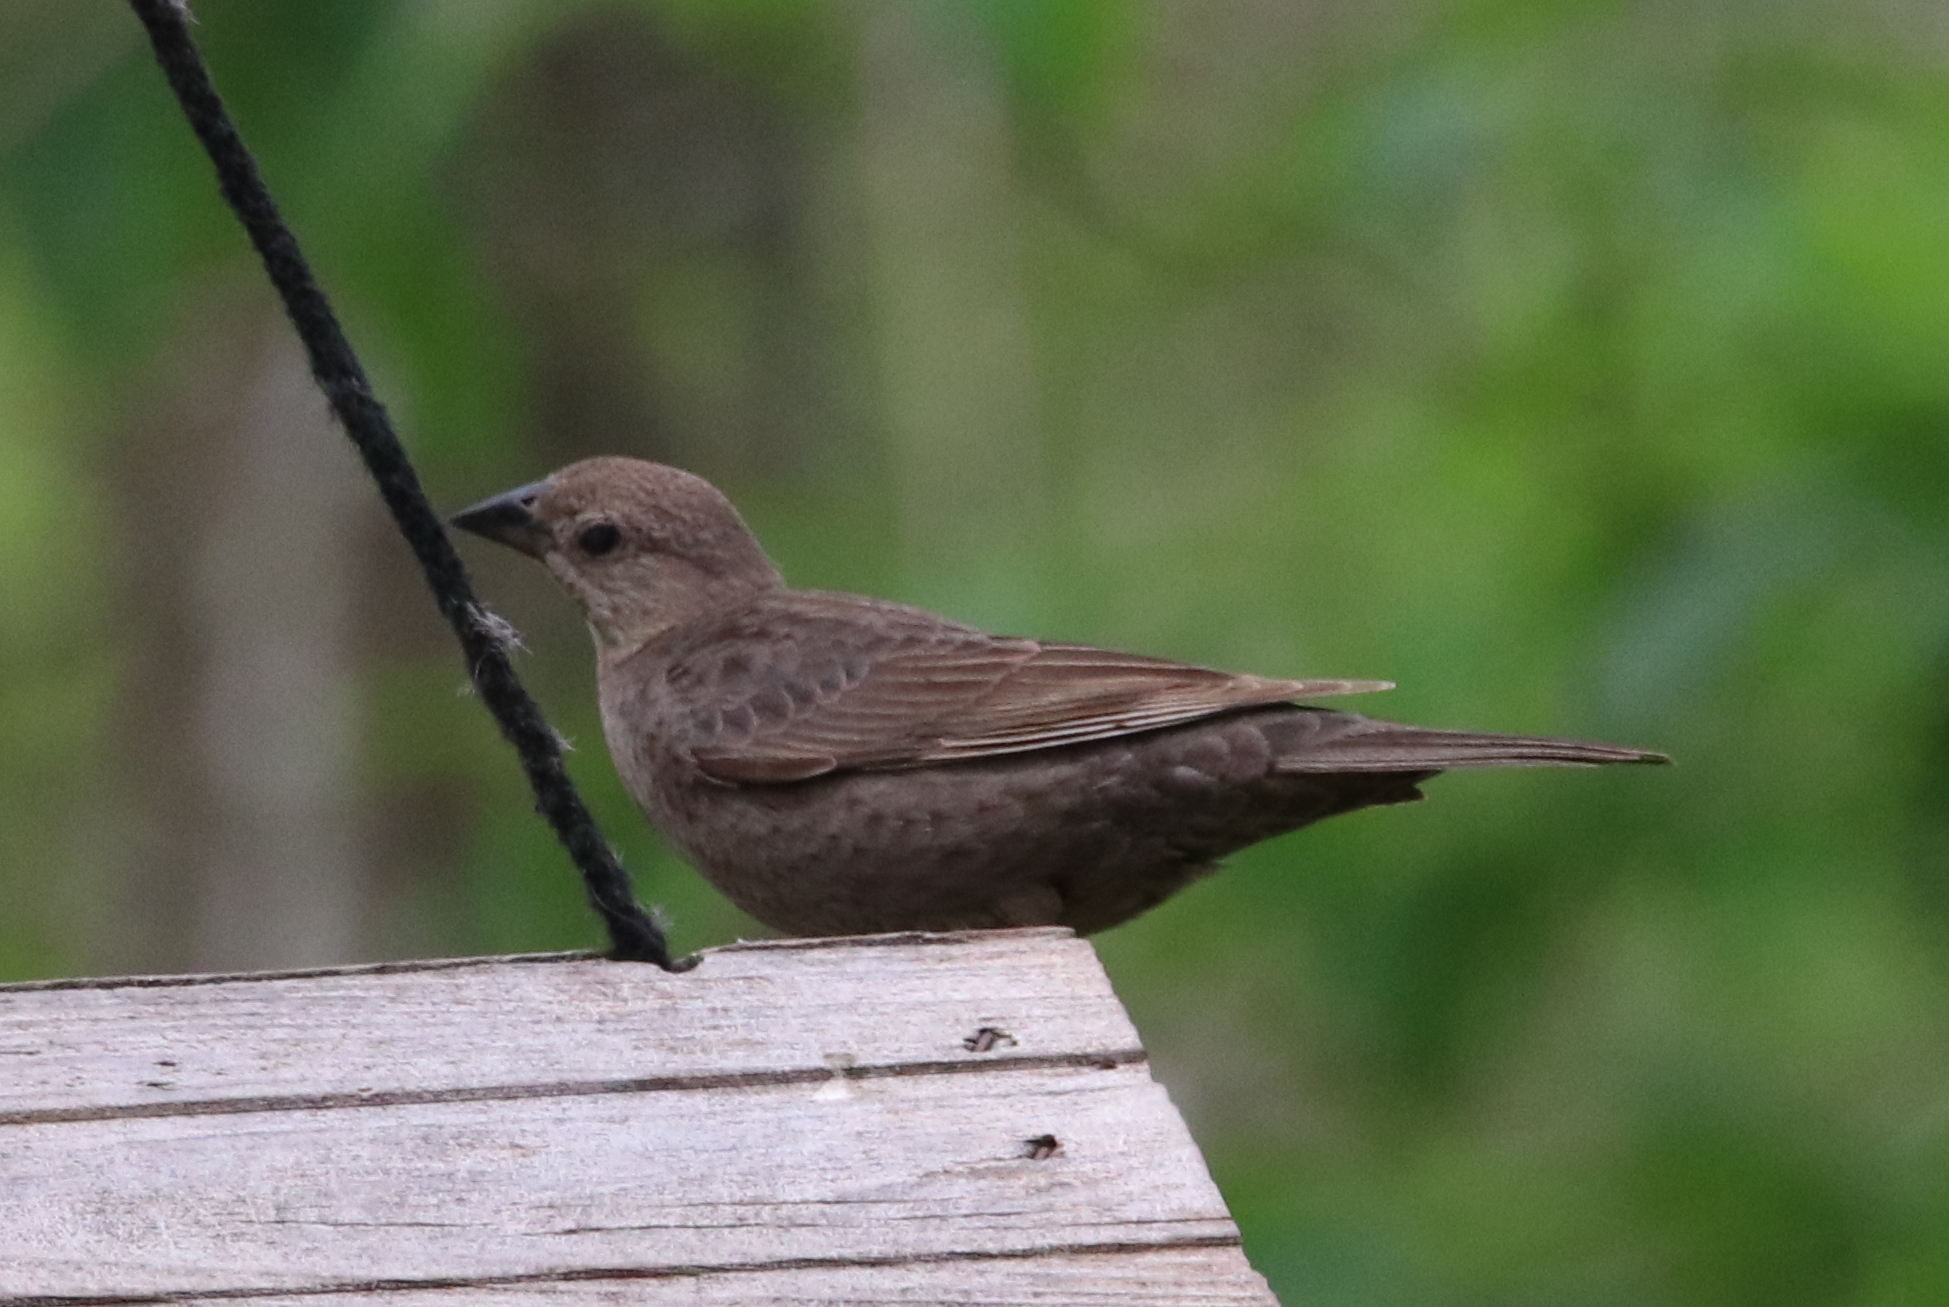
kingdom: Animalia
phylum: Chordata
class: Aves
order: Passeriformes
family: Icteridae
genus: Molothrus
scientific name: Molothrus ater
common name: Brown-headed cowbird
